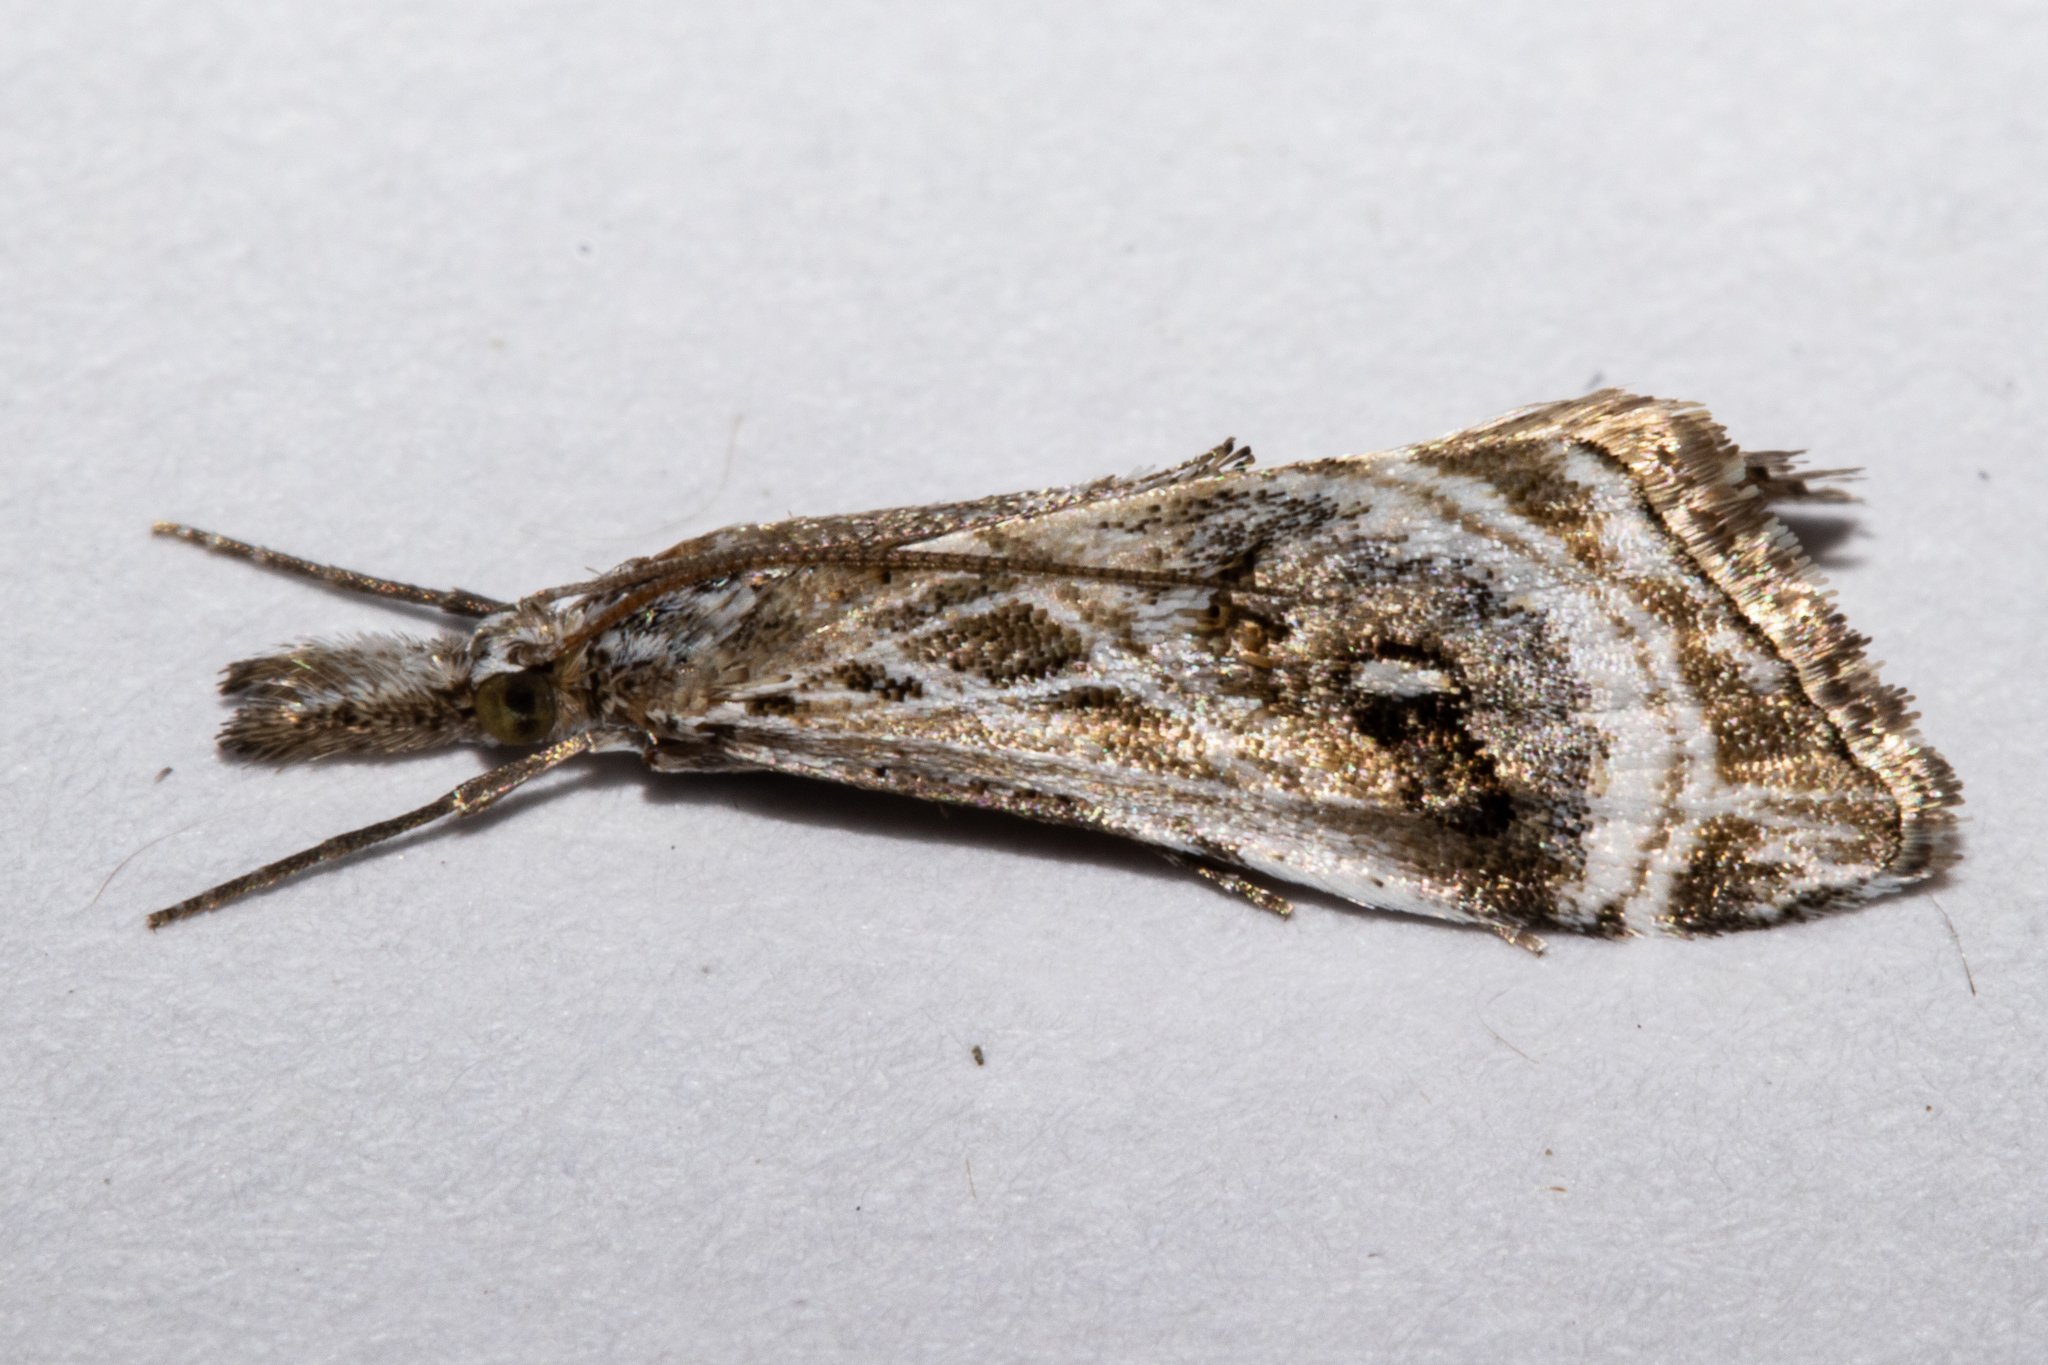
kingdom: Animalia
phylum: Arthropoda
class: Insecta
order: Lepidoptera
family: Crambidae
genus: Gadira
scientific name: Gadira acerella
